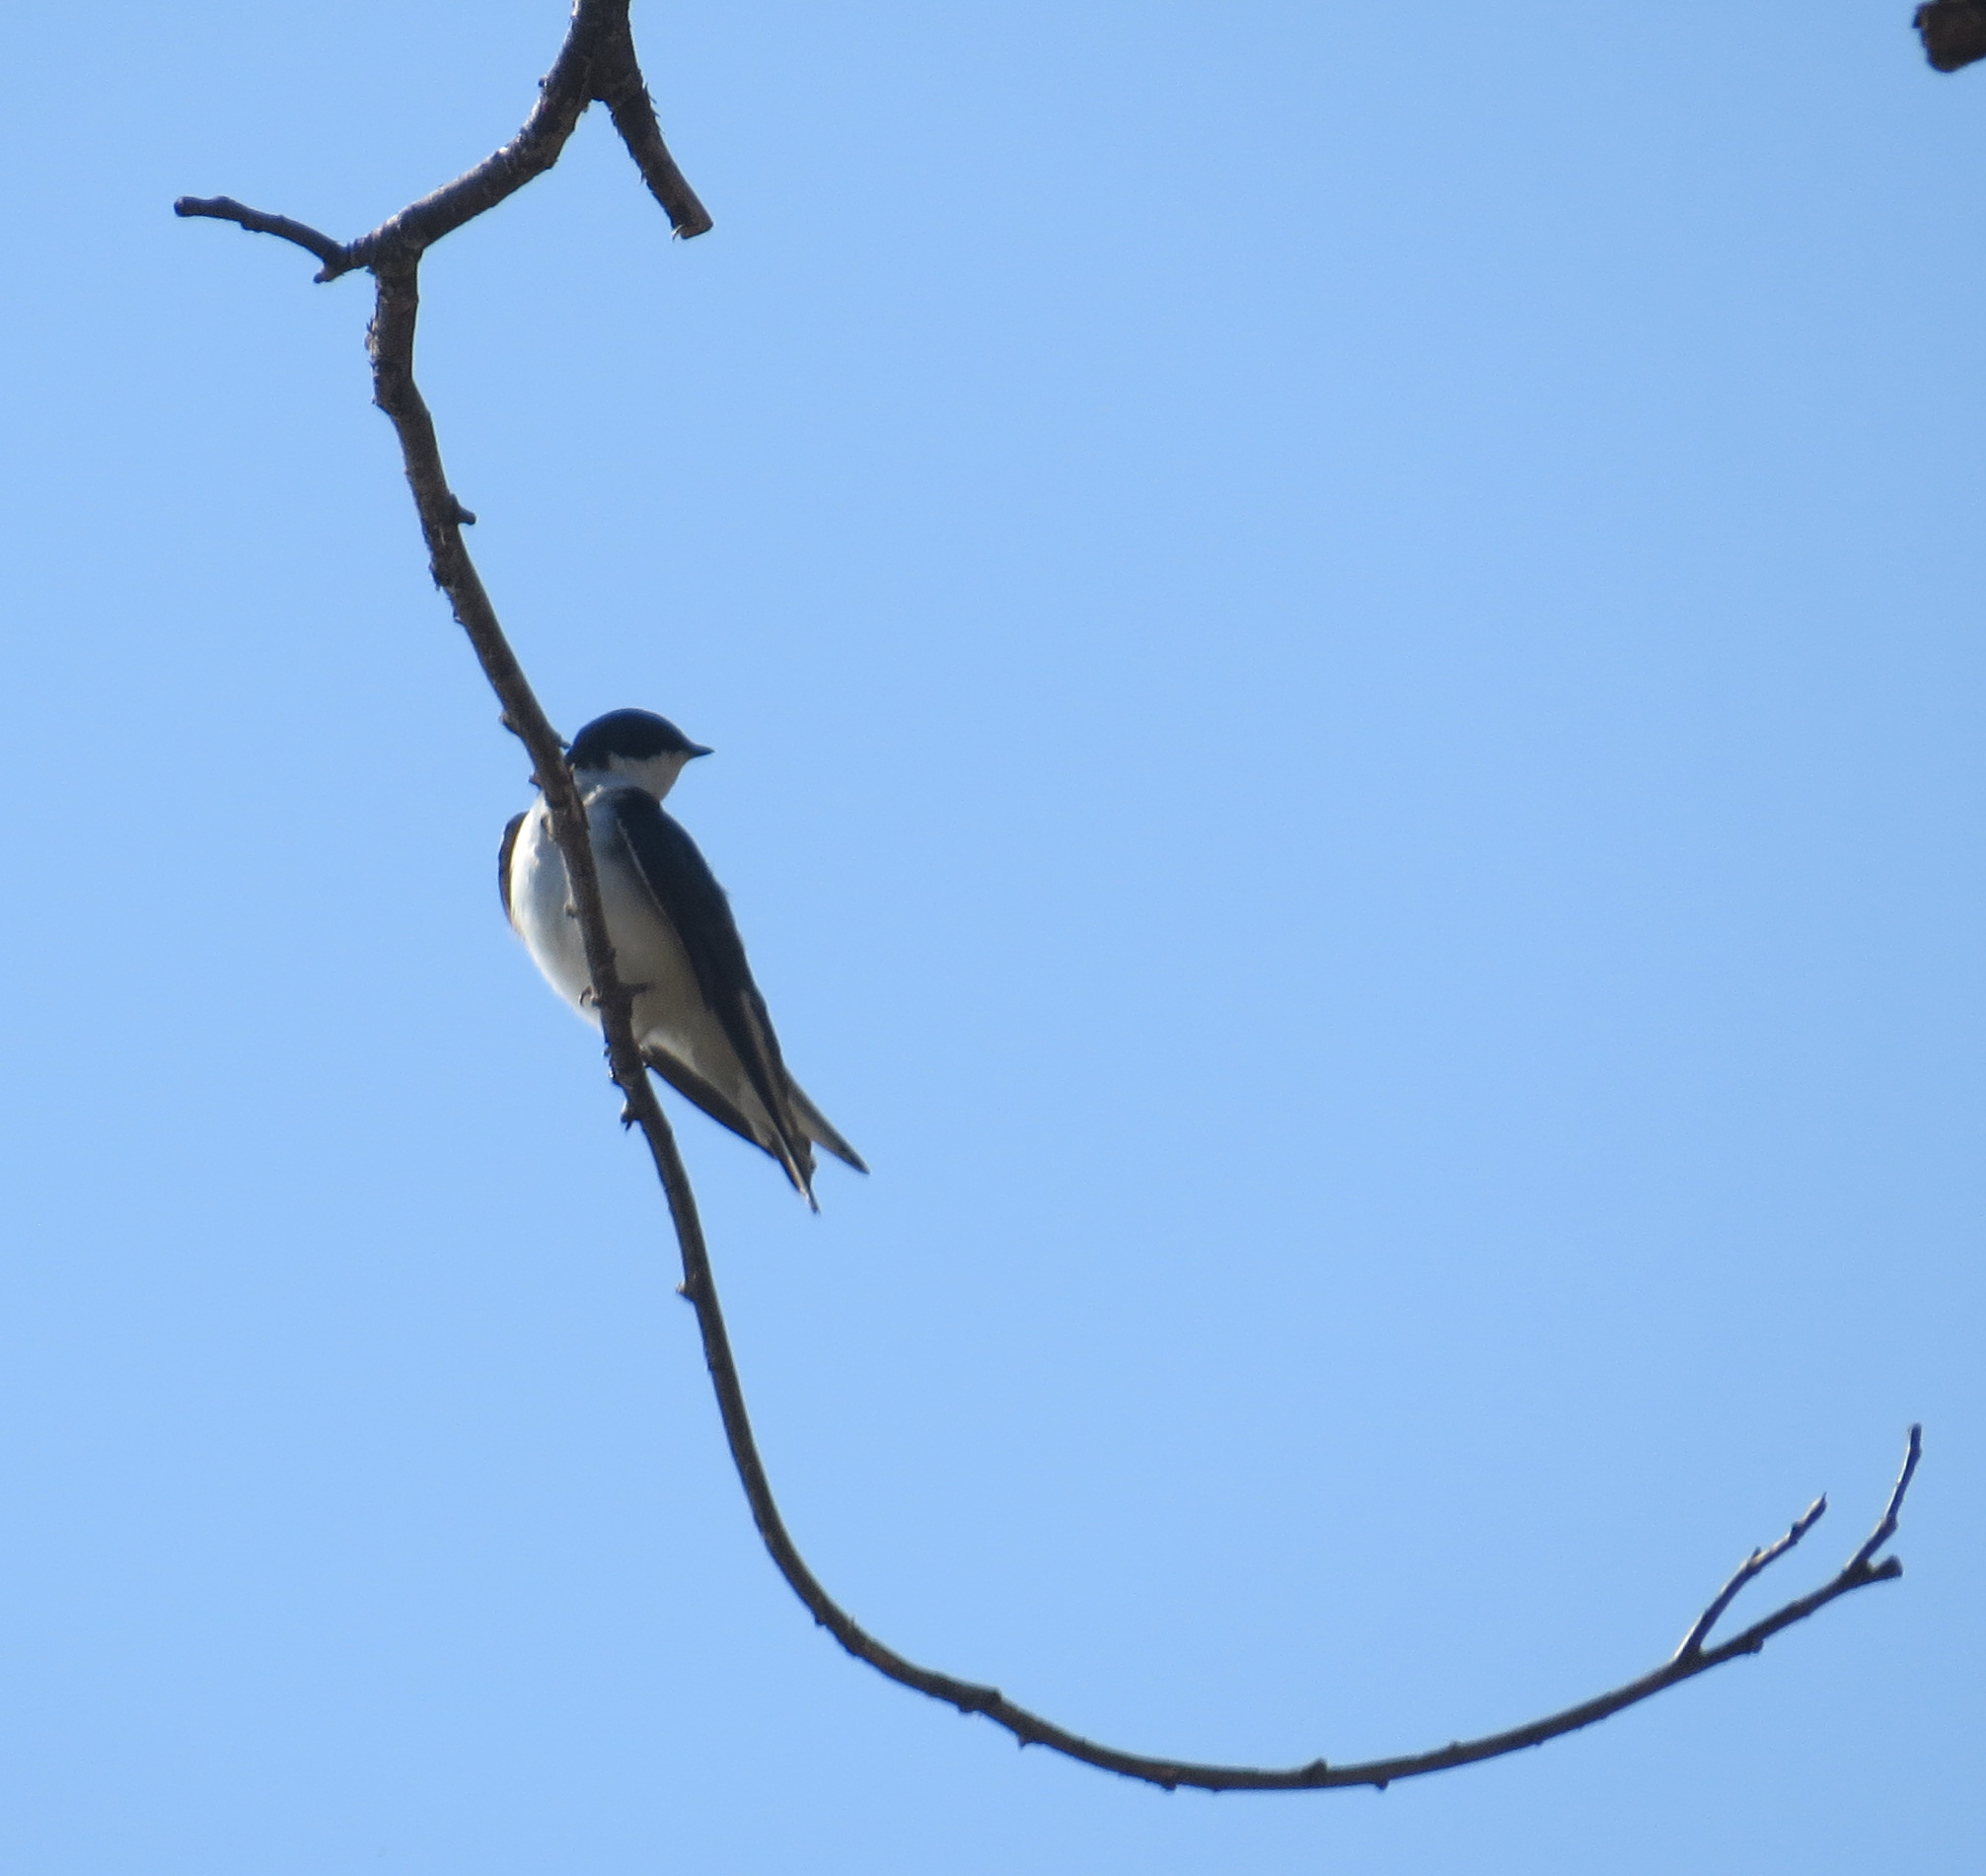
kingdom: Animalia
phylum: Chordata
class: Aves
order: Passeriformes
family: Hirundinidae
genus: Tachycineta
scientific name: Tachycineta bicolor
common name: Tree swallow
